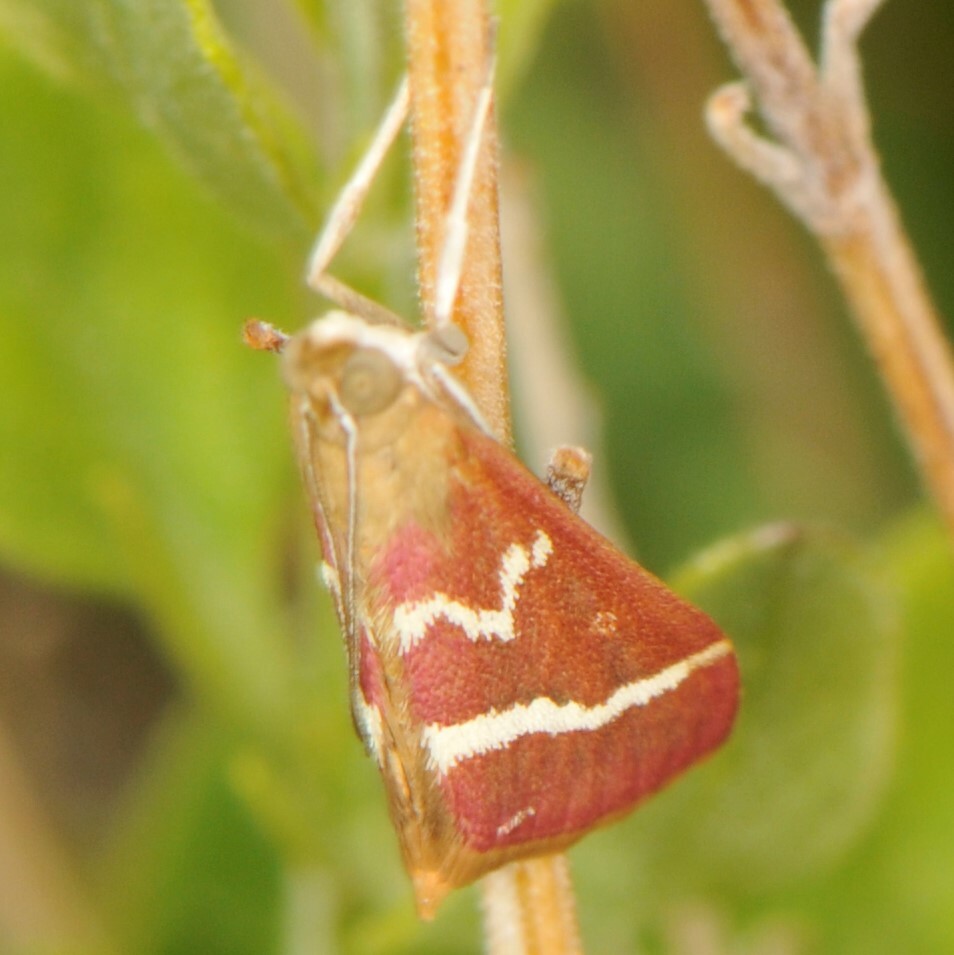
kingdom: Animalia
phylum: Arthropoda
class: Insecta
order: Lepidoptera
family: Crambidae
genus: Pyrausta
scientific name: Pyrausta volupialis
